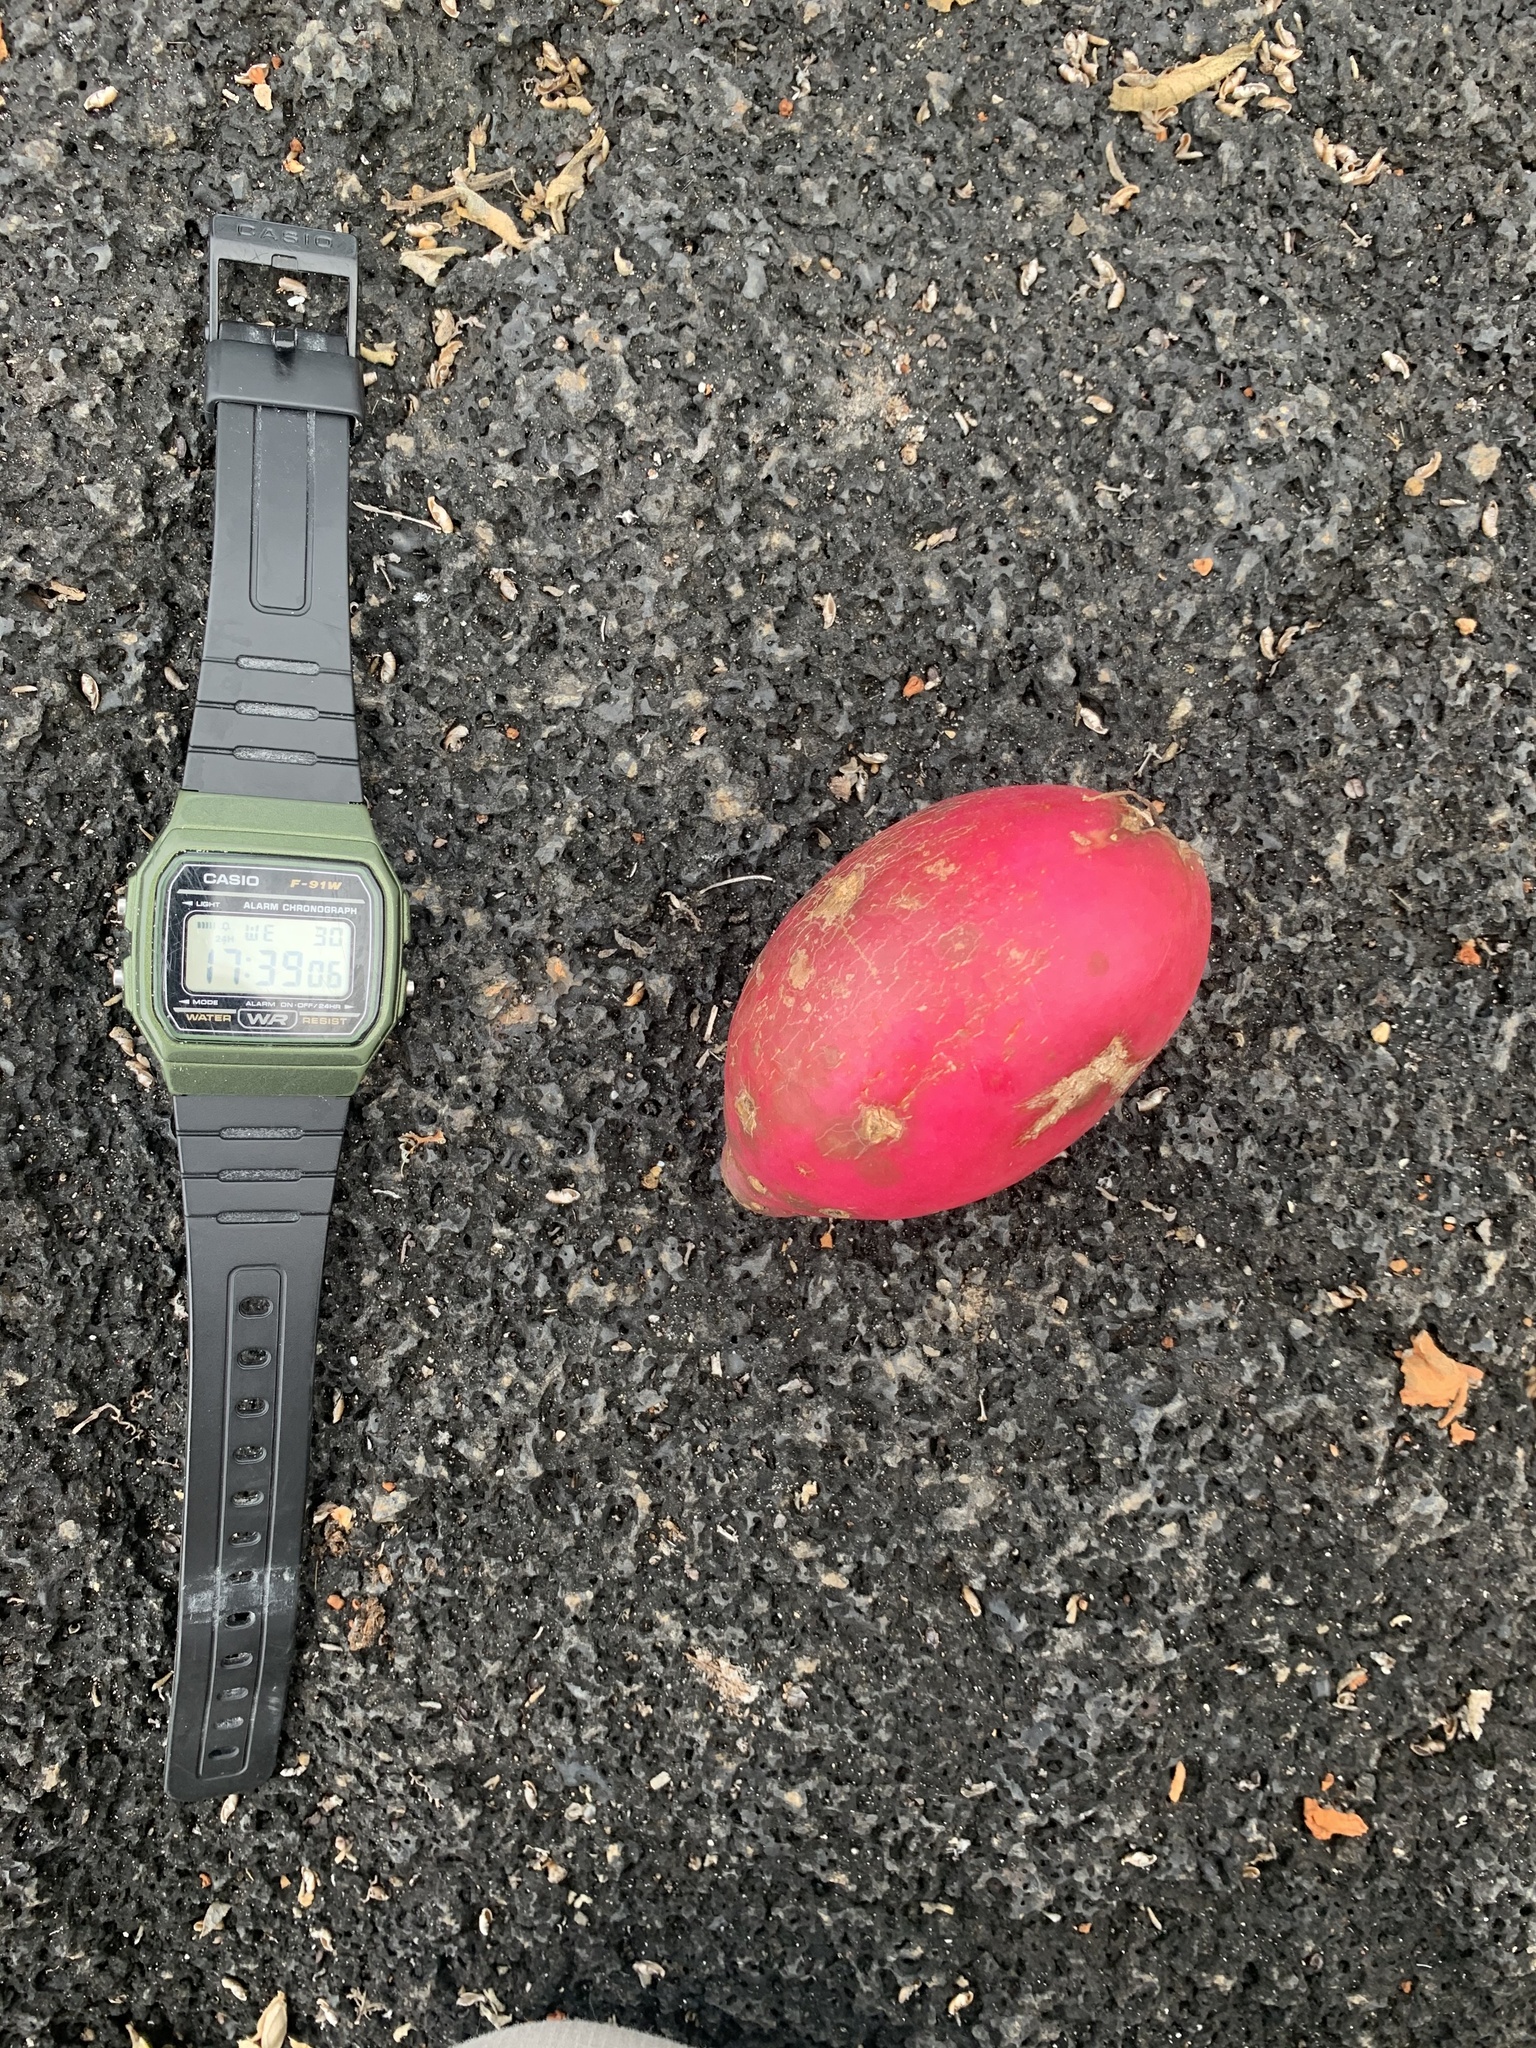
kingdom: Plantae
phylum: Tracheophyta
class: Magnoliopsida
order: Caryophyllales
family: Cactaceae
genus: Jasminocereus
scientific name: Jasminocereus thouarsii
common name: Candelabra cactus
